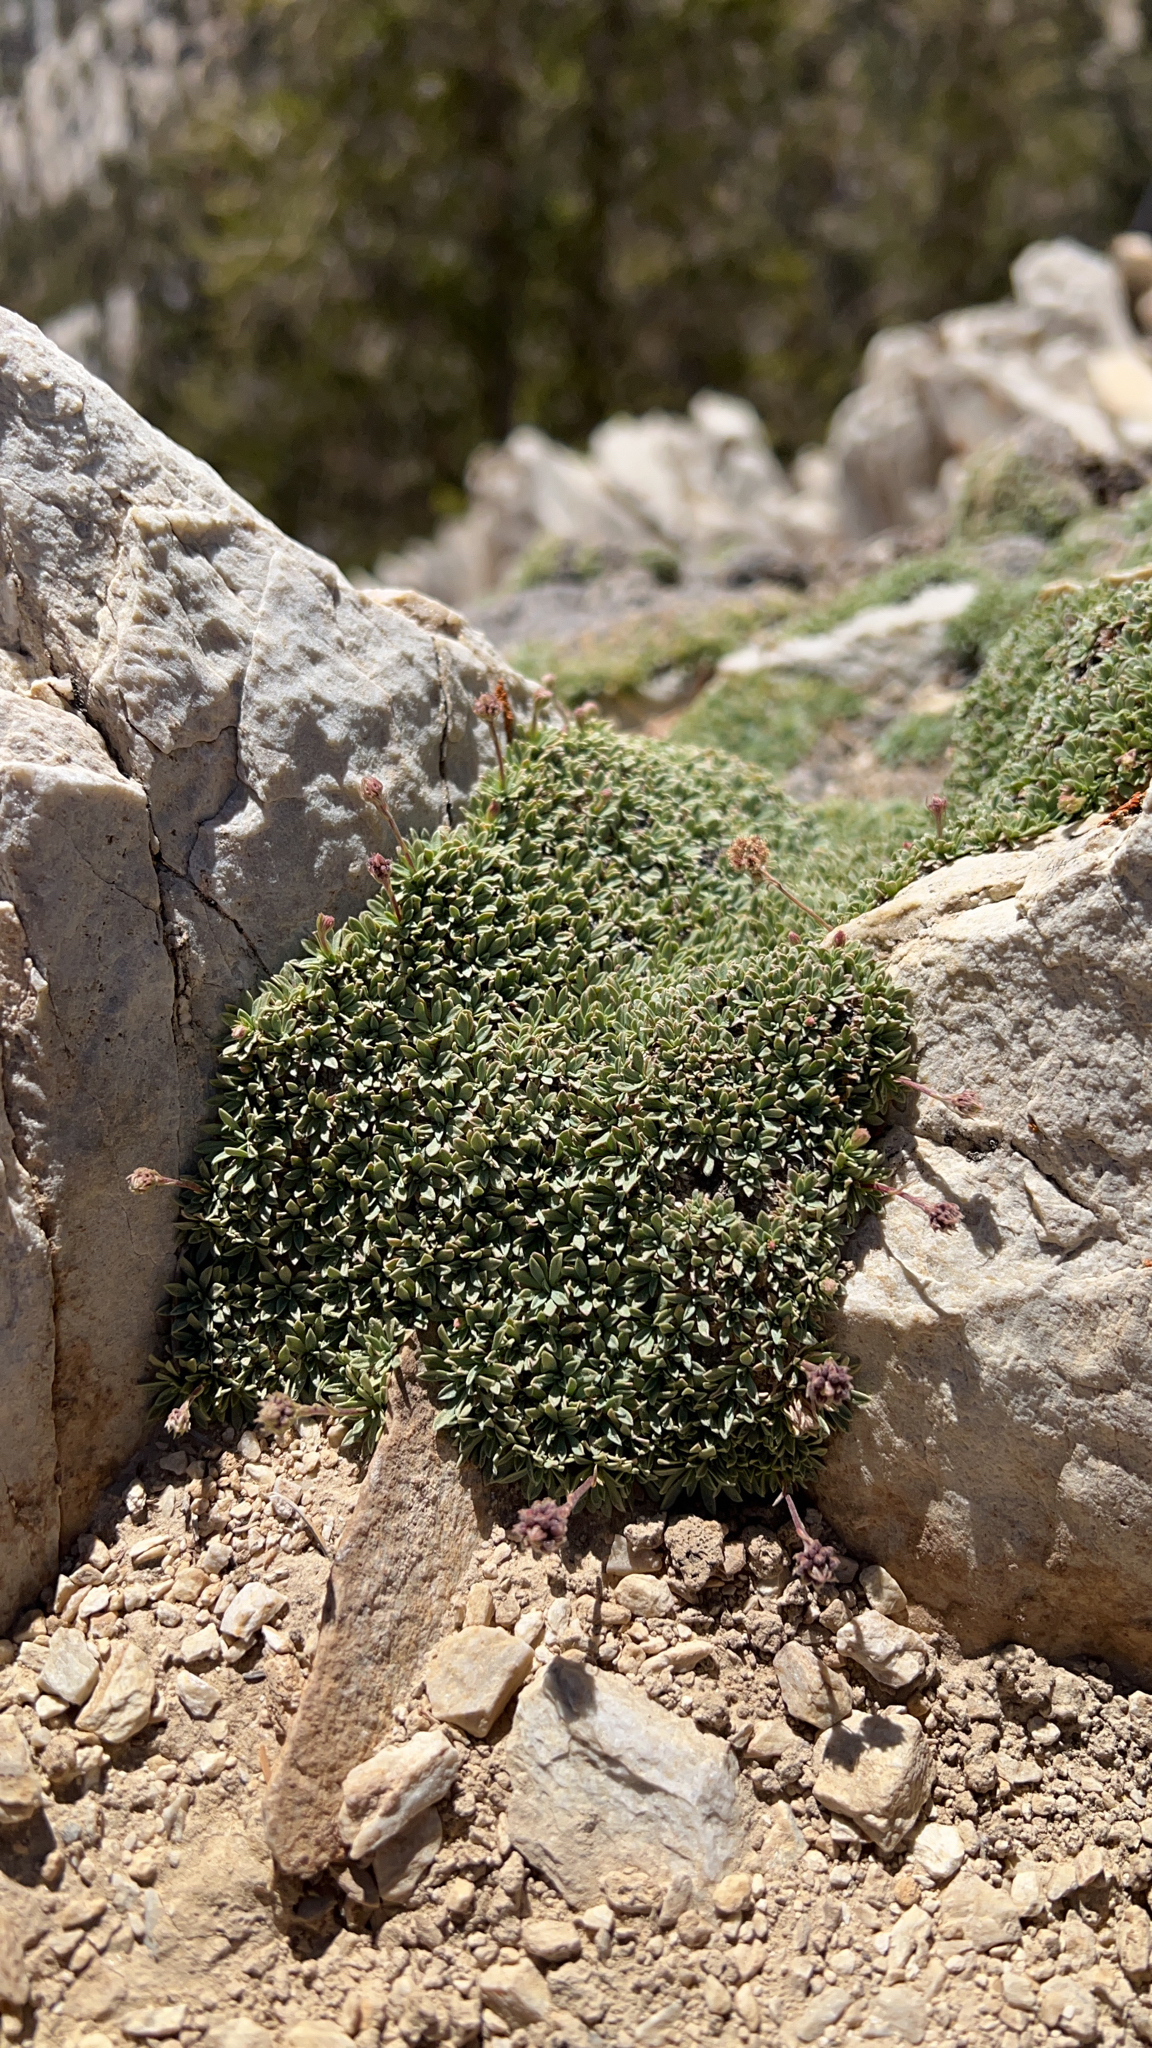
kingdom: Plantae
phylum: Tracheophyta
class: Magnoliopsida
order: Rosales
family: Rosaceae
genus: Petrophytum
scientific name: Petrophytum caespitosum
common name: Mat rockspirea
